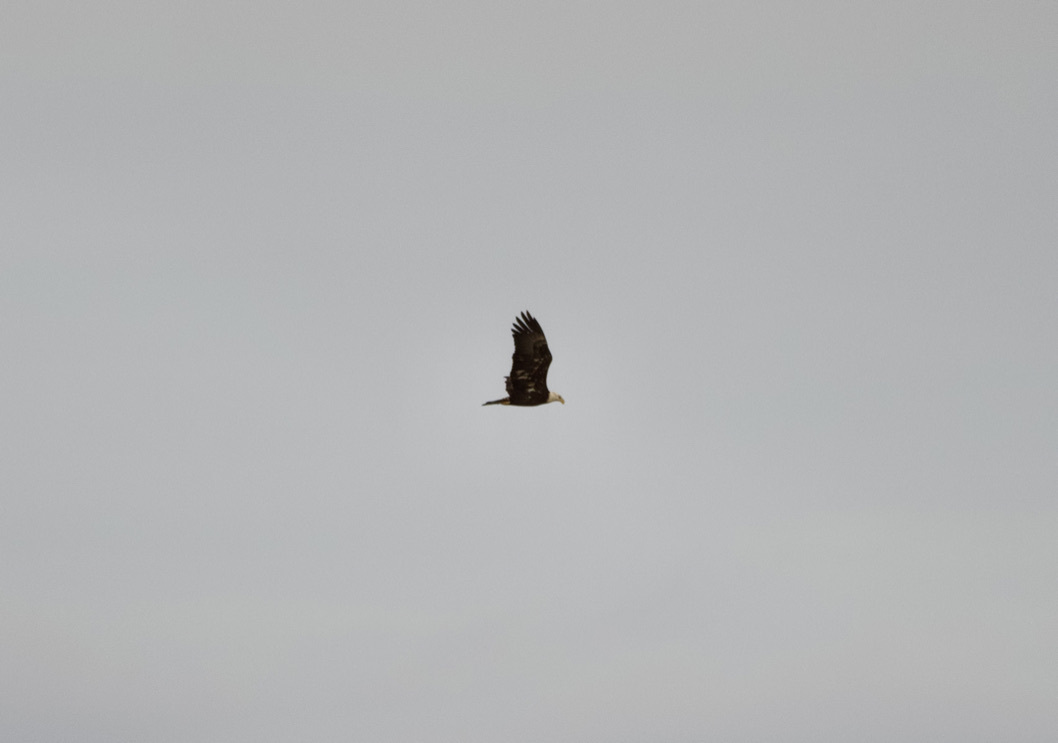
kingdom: Animalia
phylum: Chordata
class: Aves
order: Accipitriformes
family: Accipitridae
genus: Haliaeetus
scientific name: Haliaeetus leucocephalus
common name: Bald eagle
